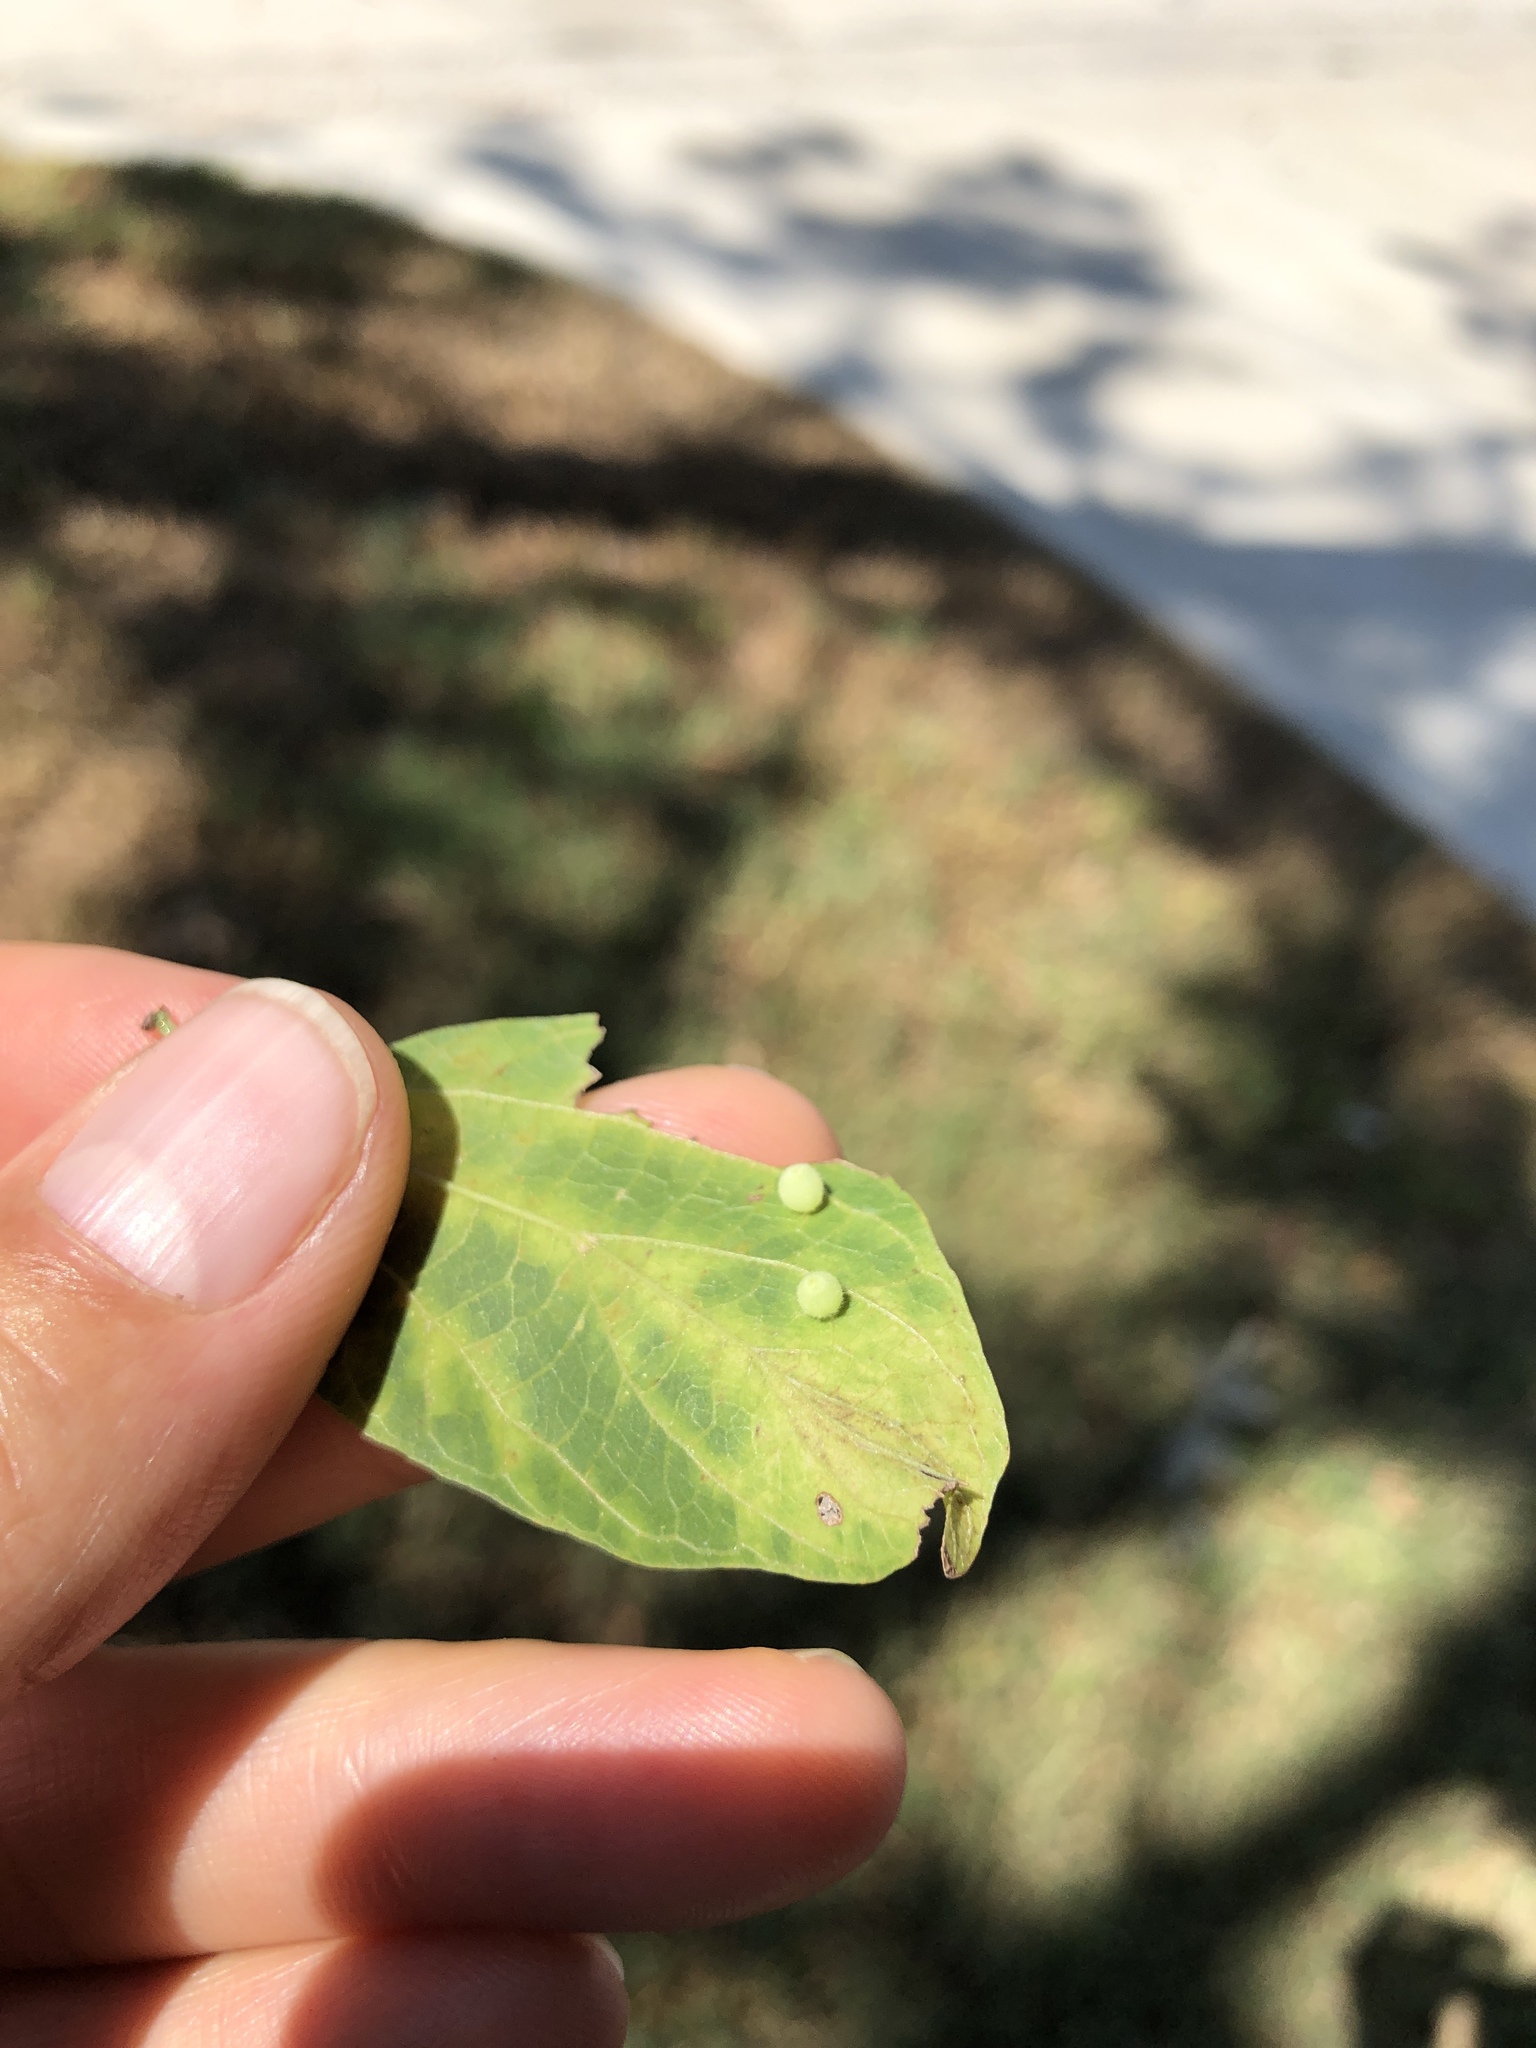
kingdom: Animalia
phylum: Arthropoda
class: Insecta
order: Diptera
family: Cecidomyiidae
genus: Celticecis
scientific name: Celticecis globosa
